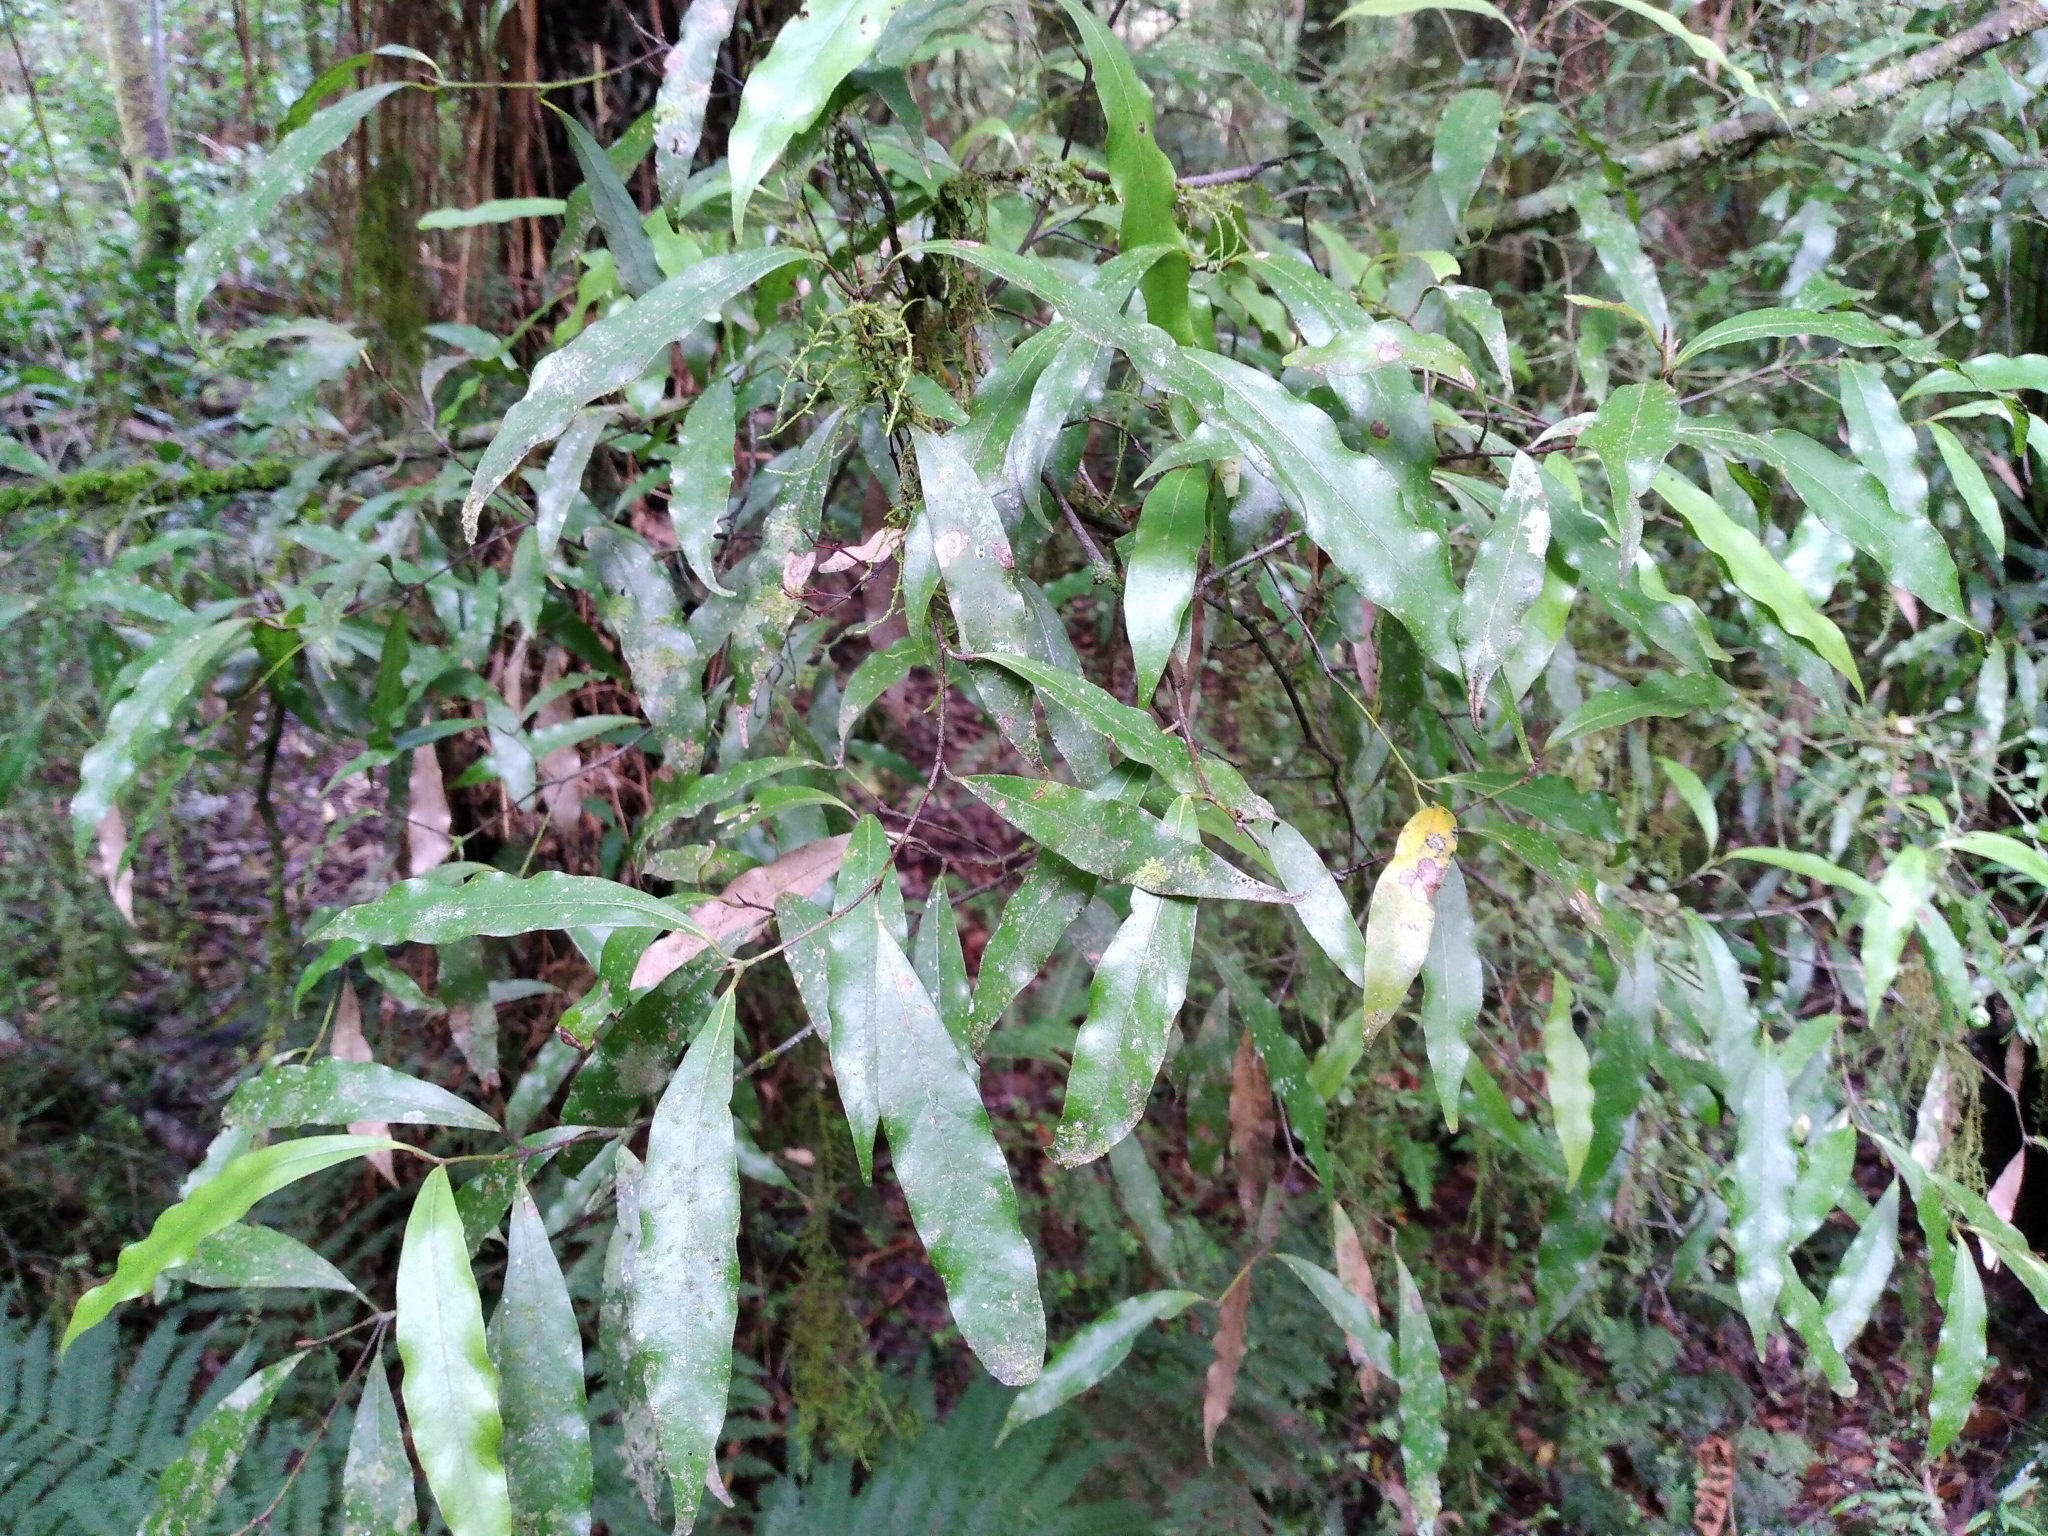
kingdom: Plantae
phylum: Tracheophyta
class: Magnoliopsida
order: Laurales
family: Lauraceae
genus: Beilschmiedia
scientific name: Beilschmiedia tawa
